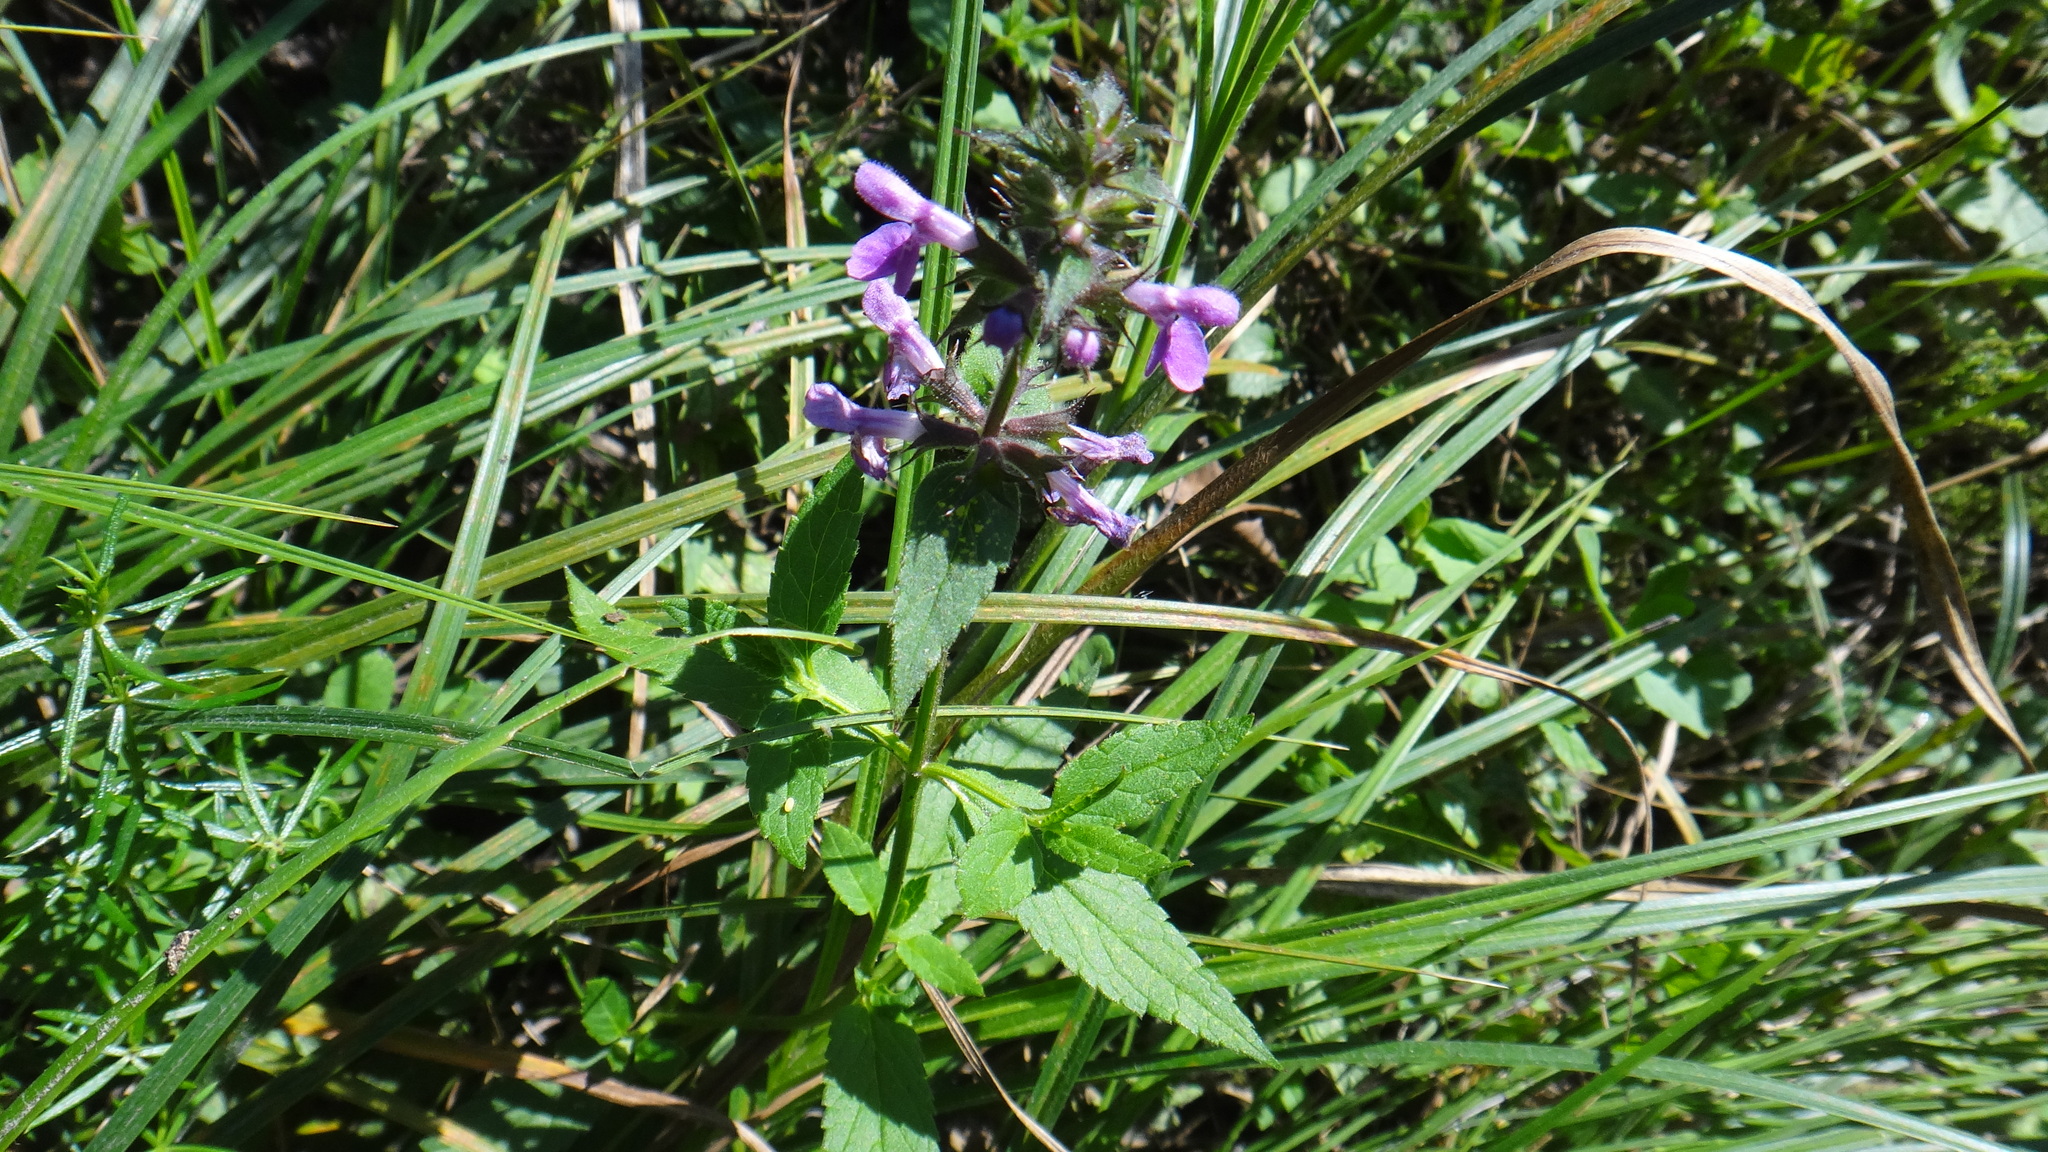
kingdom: Plantae
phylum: Tracheophyta
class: Magnoliopsida
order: Lamiales
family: Lamiaceae
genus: Stachys
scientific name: Stachys palustris
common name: Marsh woundwort
